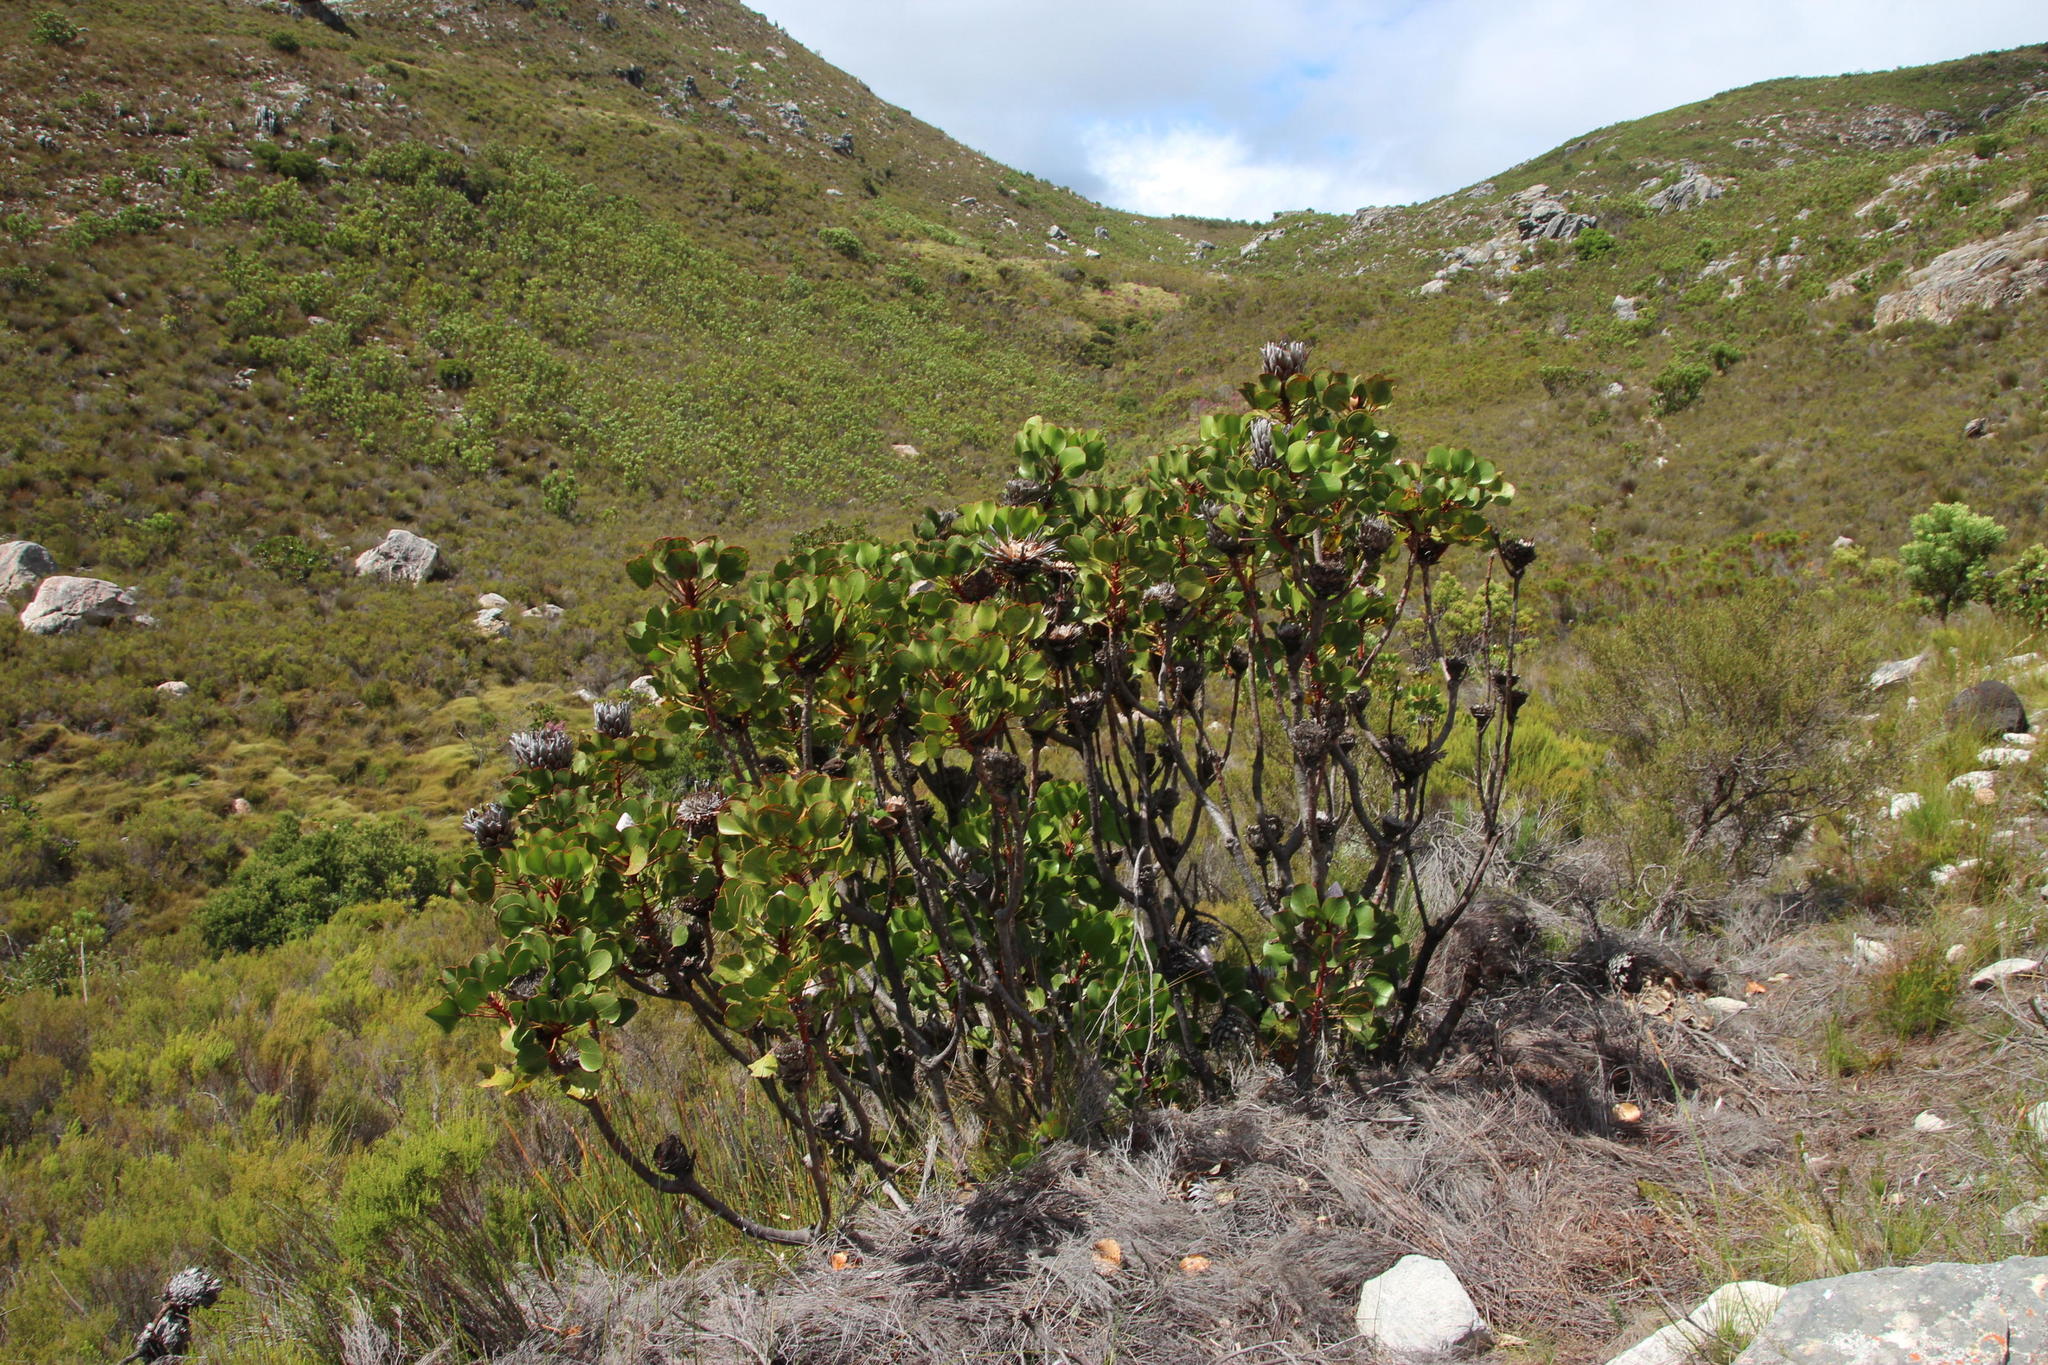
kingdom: Plantae
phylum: Tracheophyta
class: Magnoliopsida
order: Proteales
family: Proteaceae
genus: Protea
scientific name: Protea cynaroides
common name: King protea
